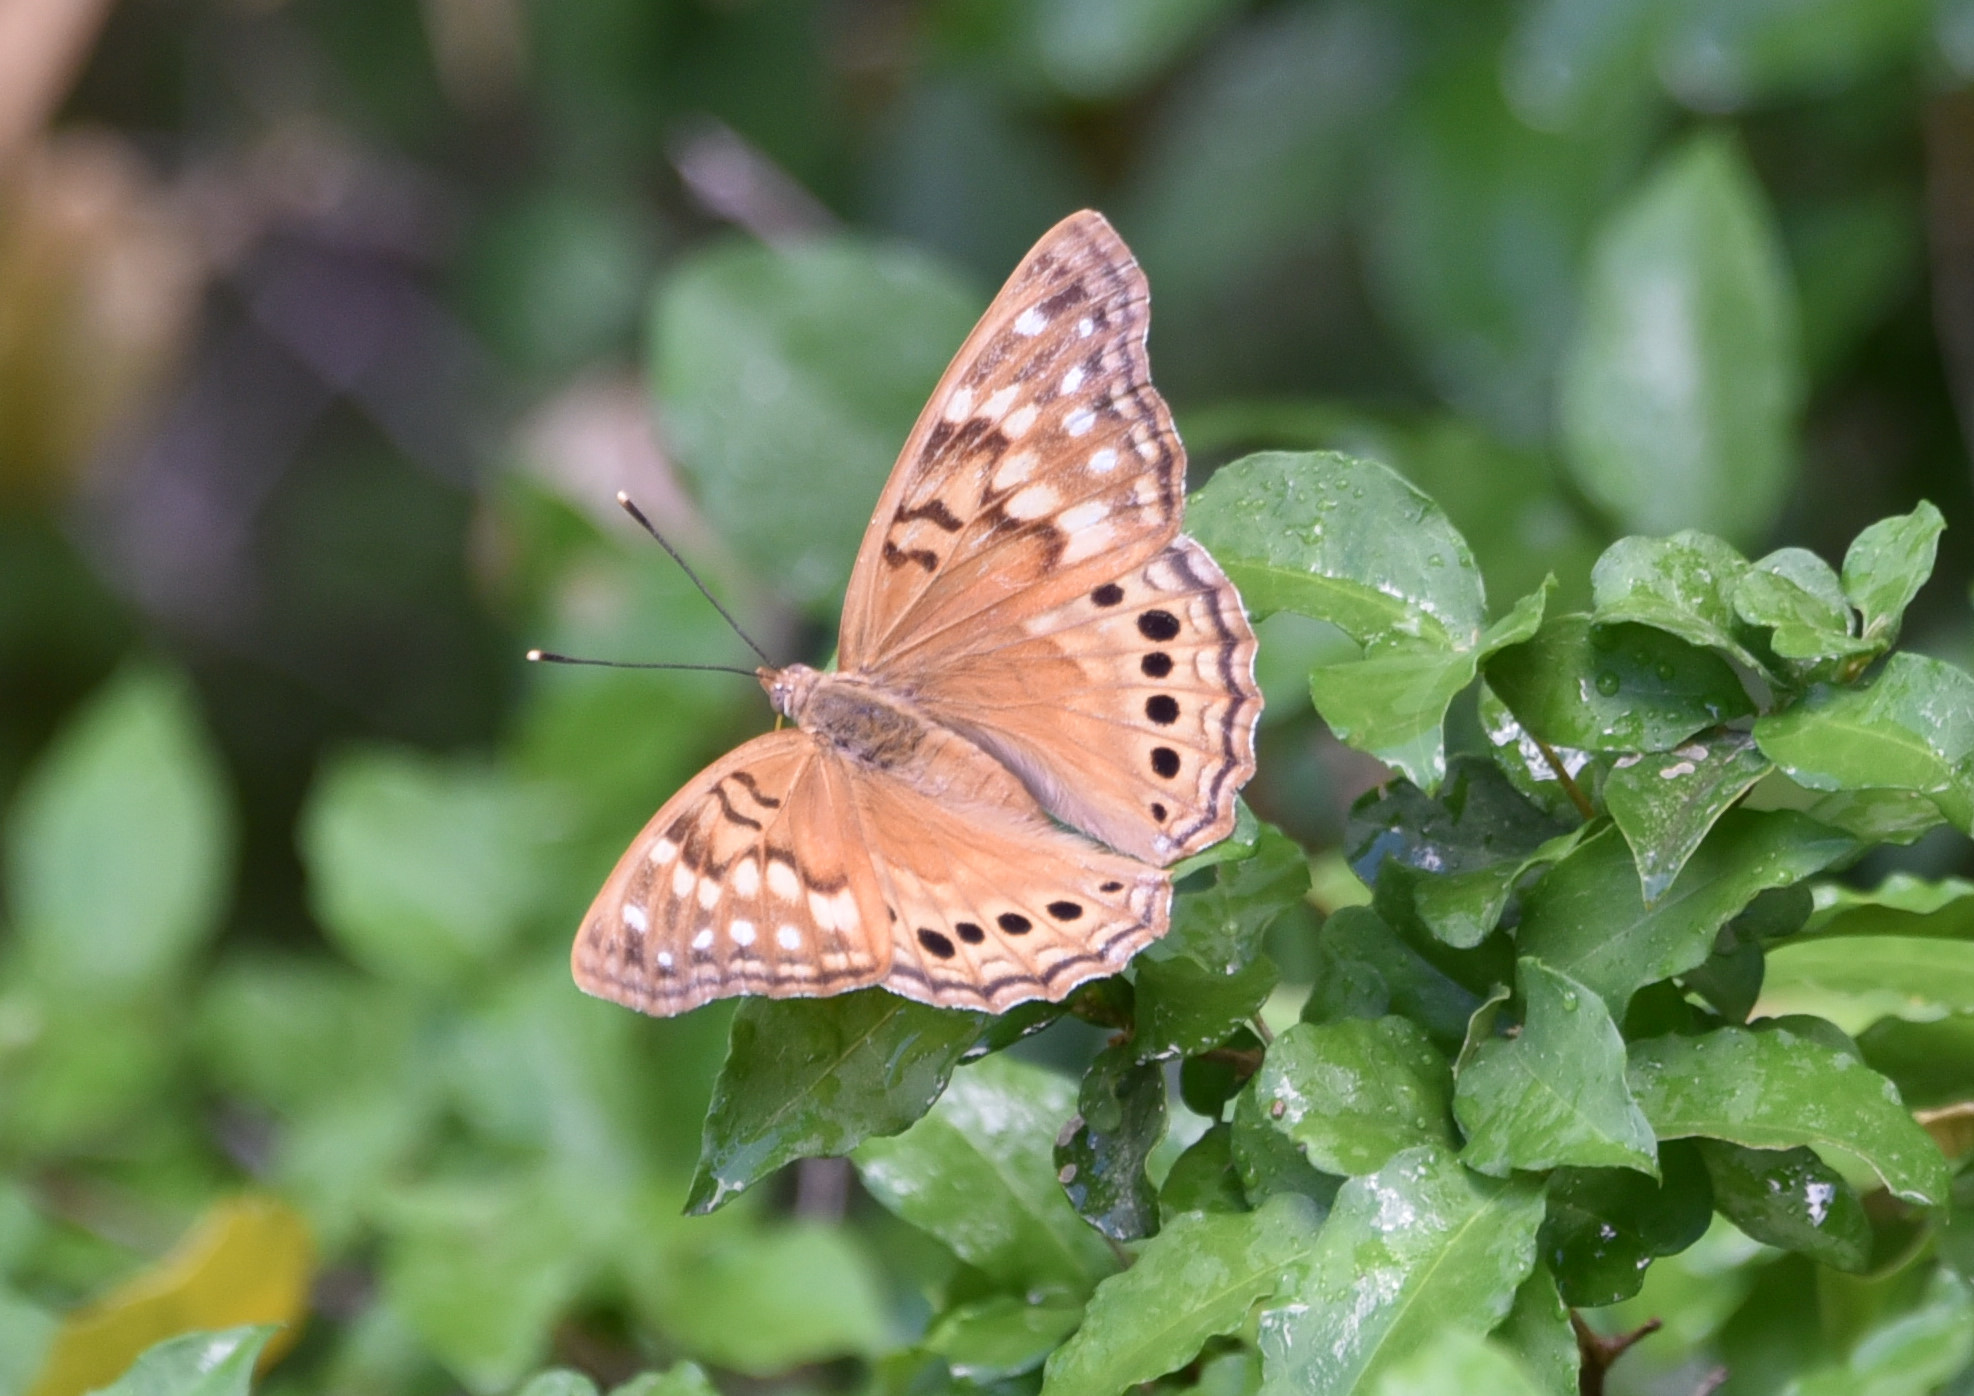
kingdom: Animalia
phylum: Arthropoda
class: Insecta
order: Lepidoptera
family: Nymphalidae
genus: Asterocampa
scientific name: Asterocampa clyton
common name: Tawny emperor
